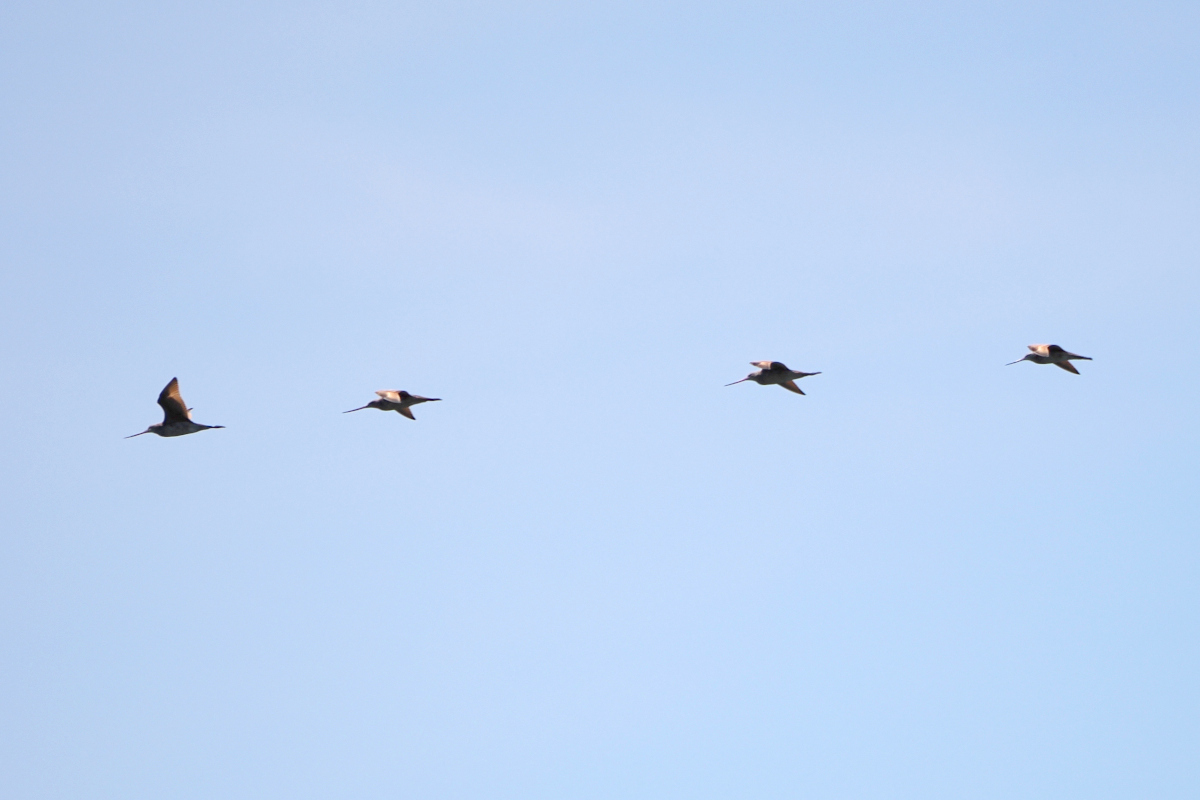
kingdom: Animalia
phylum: Chordata
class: Aves
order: Charadriiformes
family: Scolopacidae
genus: Limosa
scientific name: Limosa fedoa
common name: Marbled godwit
